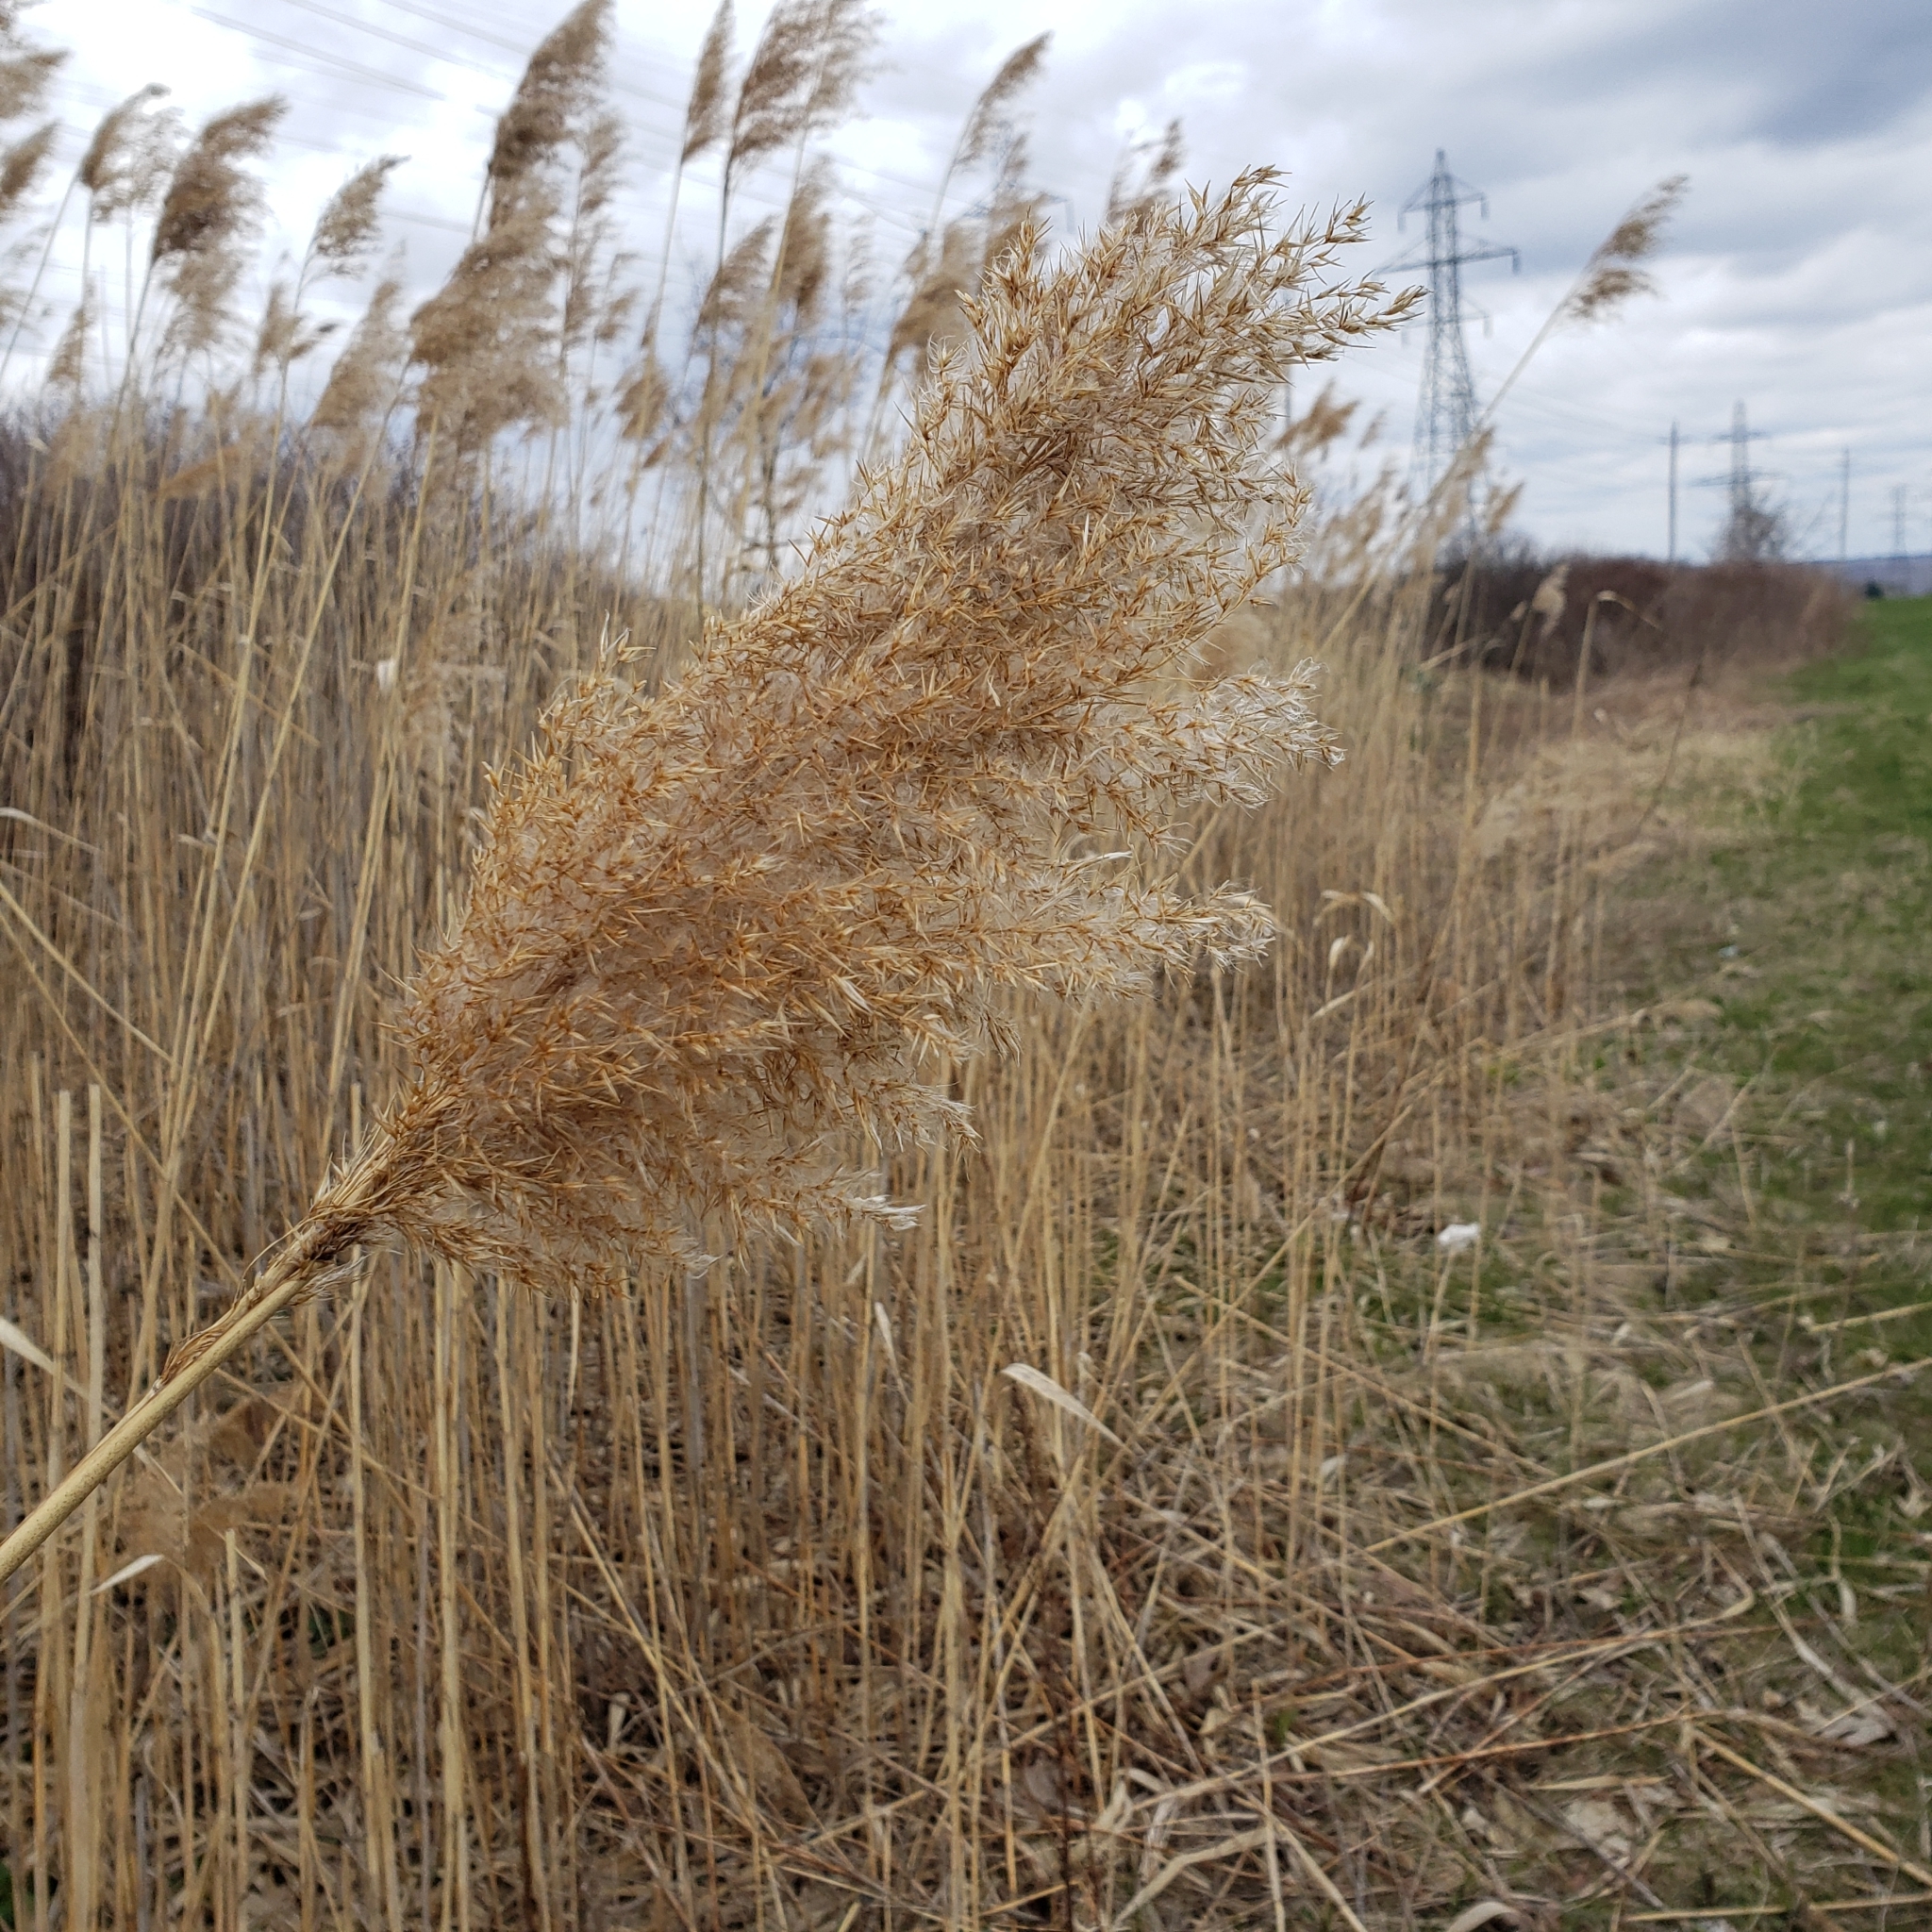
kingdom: Plantae
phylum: Tracheophyta
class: Liliopsida
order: Poales
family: Poaceae
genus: Phragmites
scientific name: Phragmites australis
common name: Common reed
